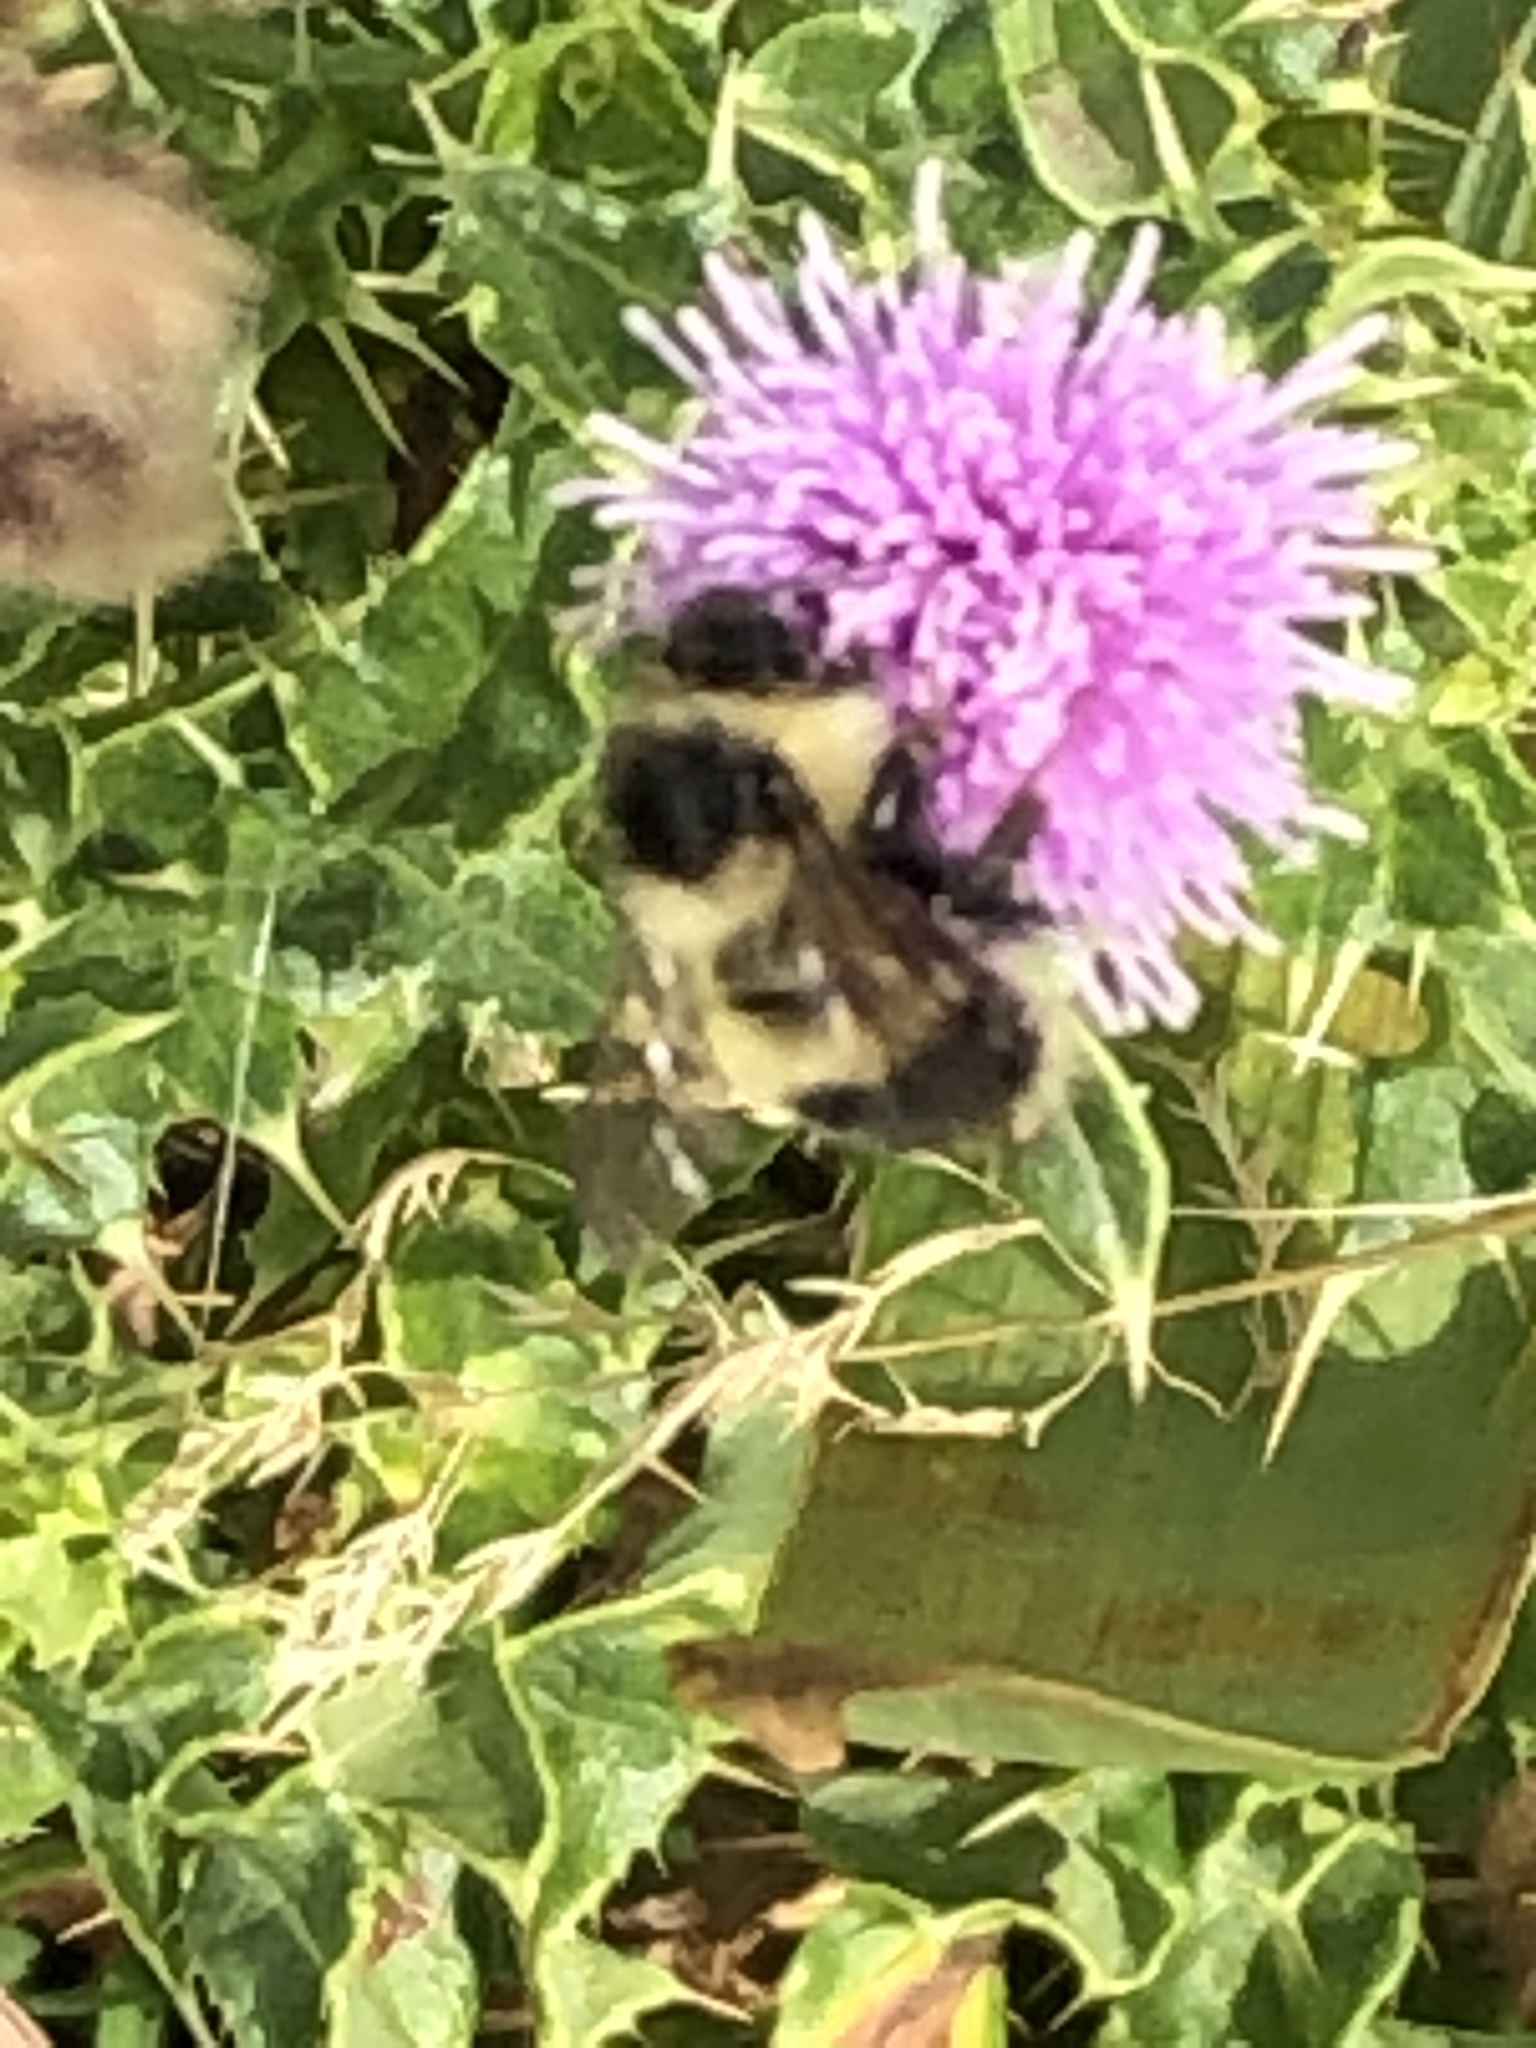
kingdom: Animalia
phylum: Arthropoda
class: Insecta
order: Hymenoptera
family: Apidae
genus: Bombus
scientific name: Bombus vagans
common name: Half-black bumble bee
